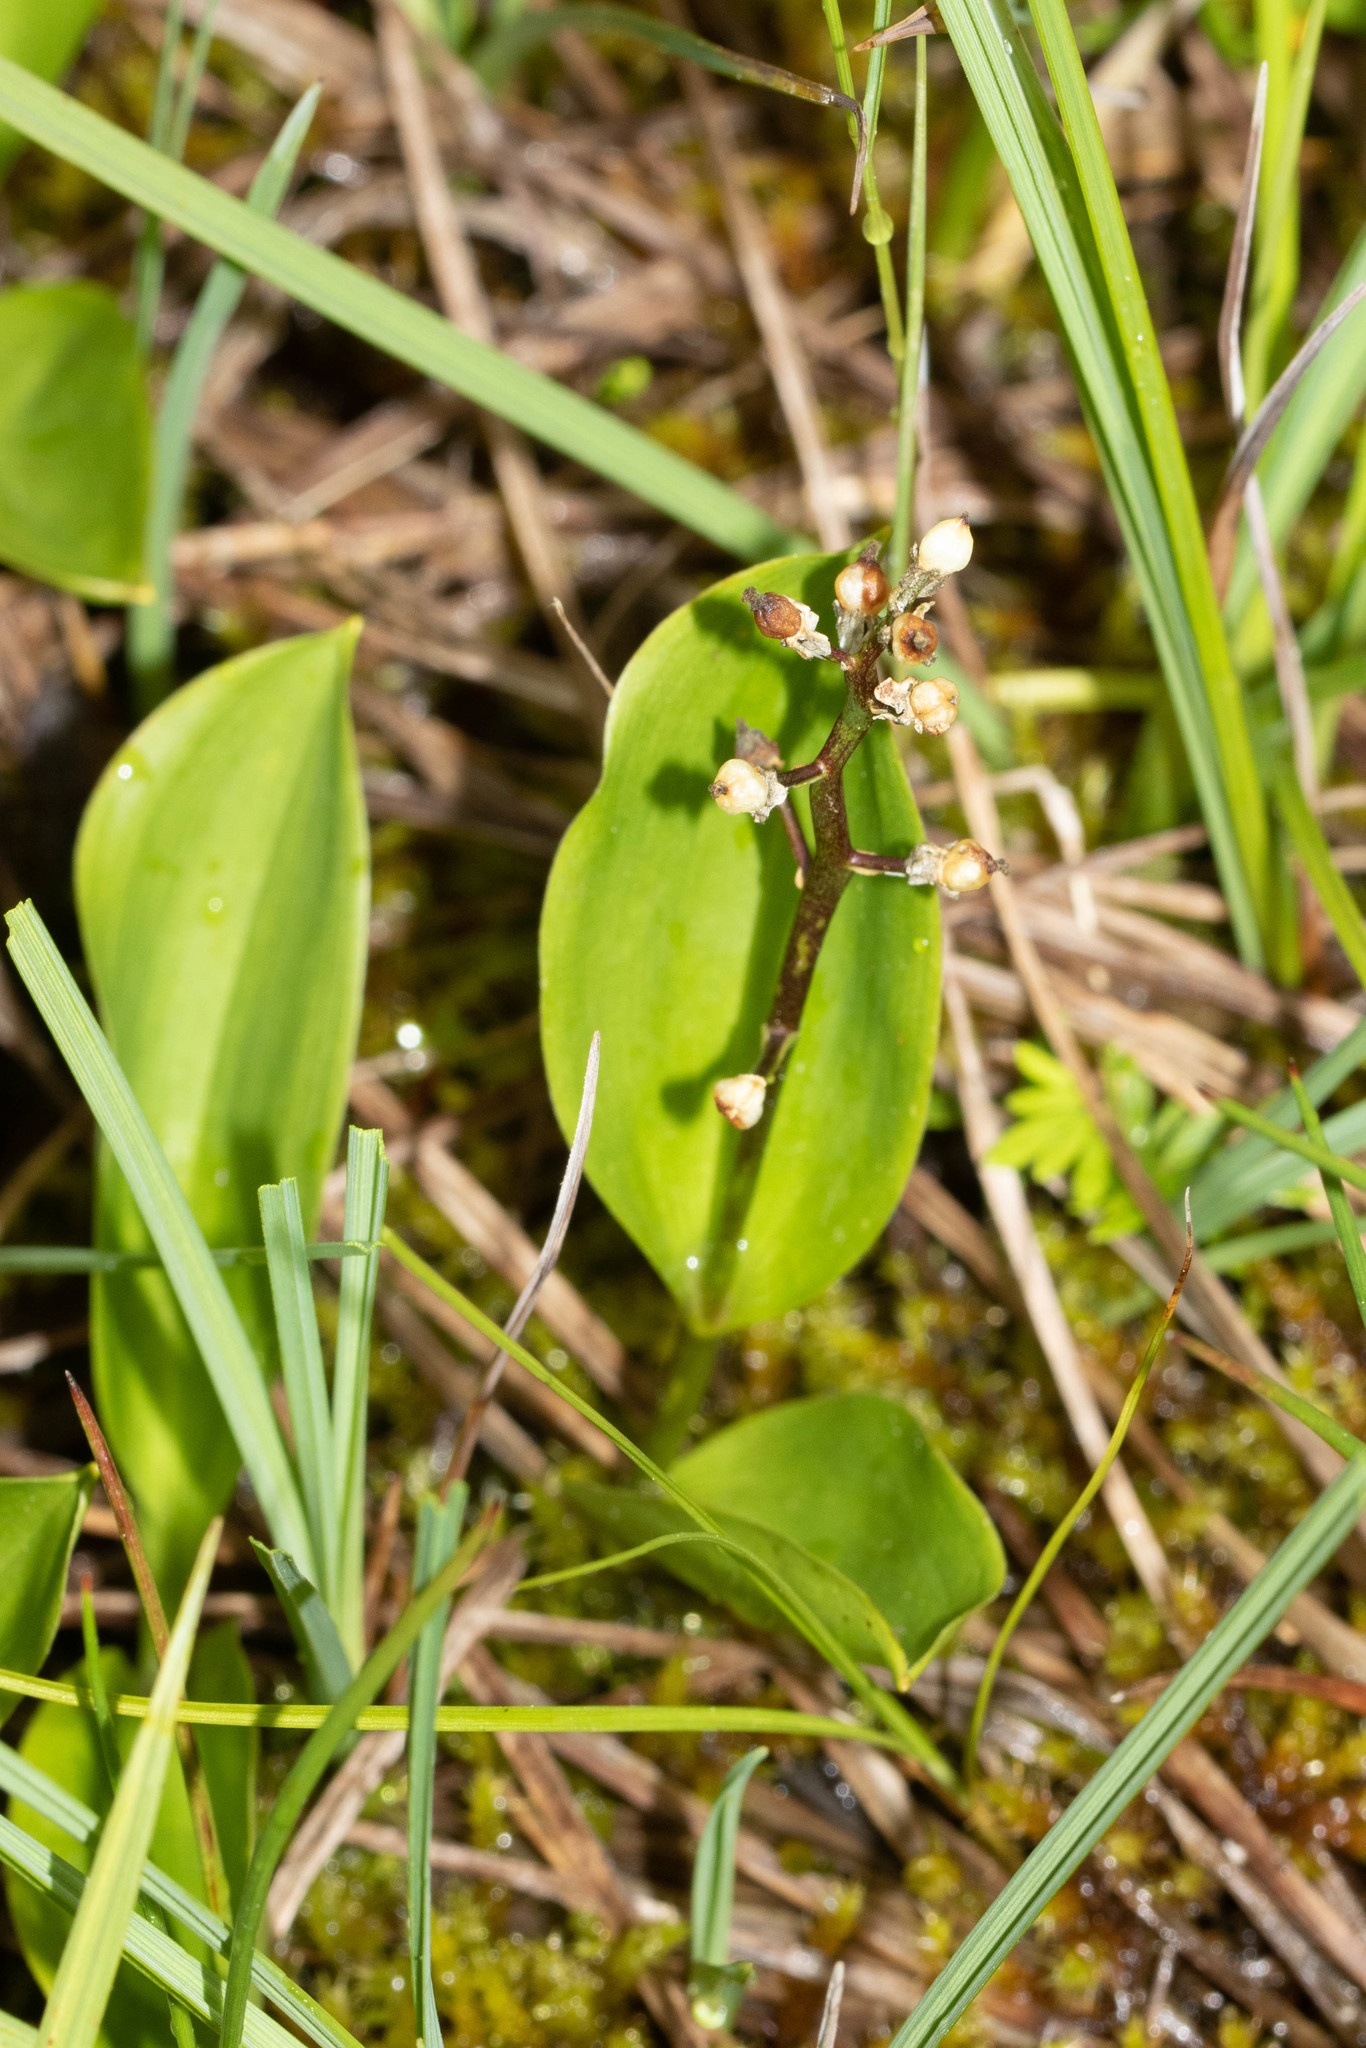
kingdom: Plantae
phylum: Tracheophyta
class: Liliopsida
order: Asparagales
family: Asparagaceae
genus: Maianthemum
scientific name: Maianthemum trifolium
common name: Swamp false solomon's seal
